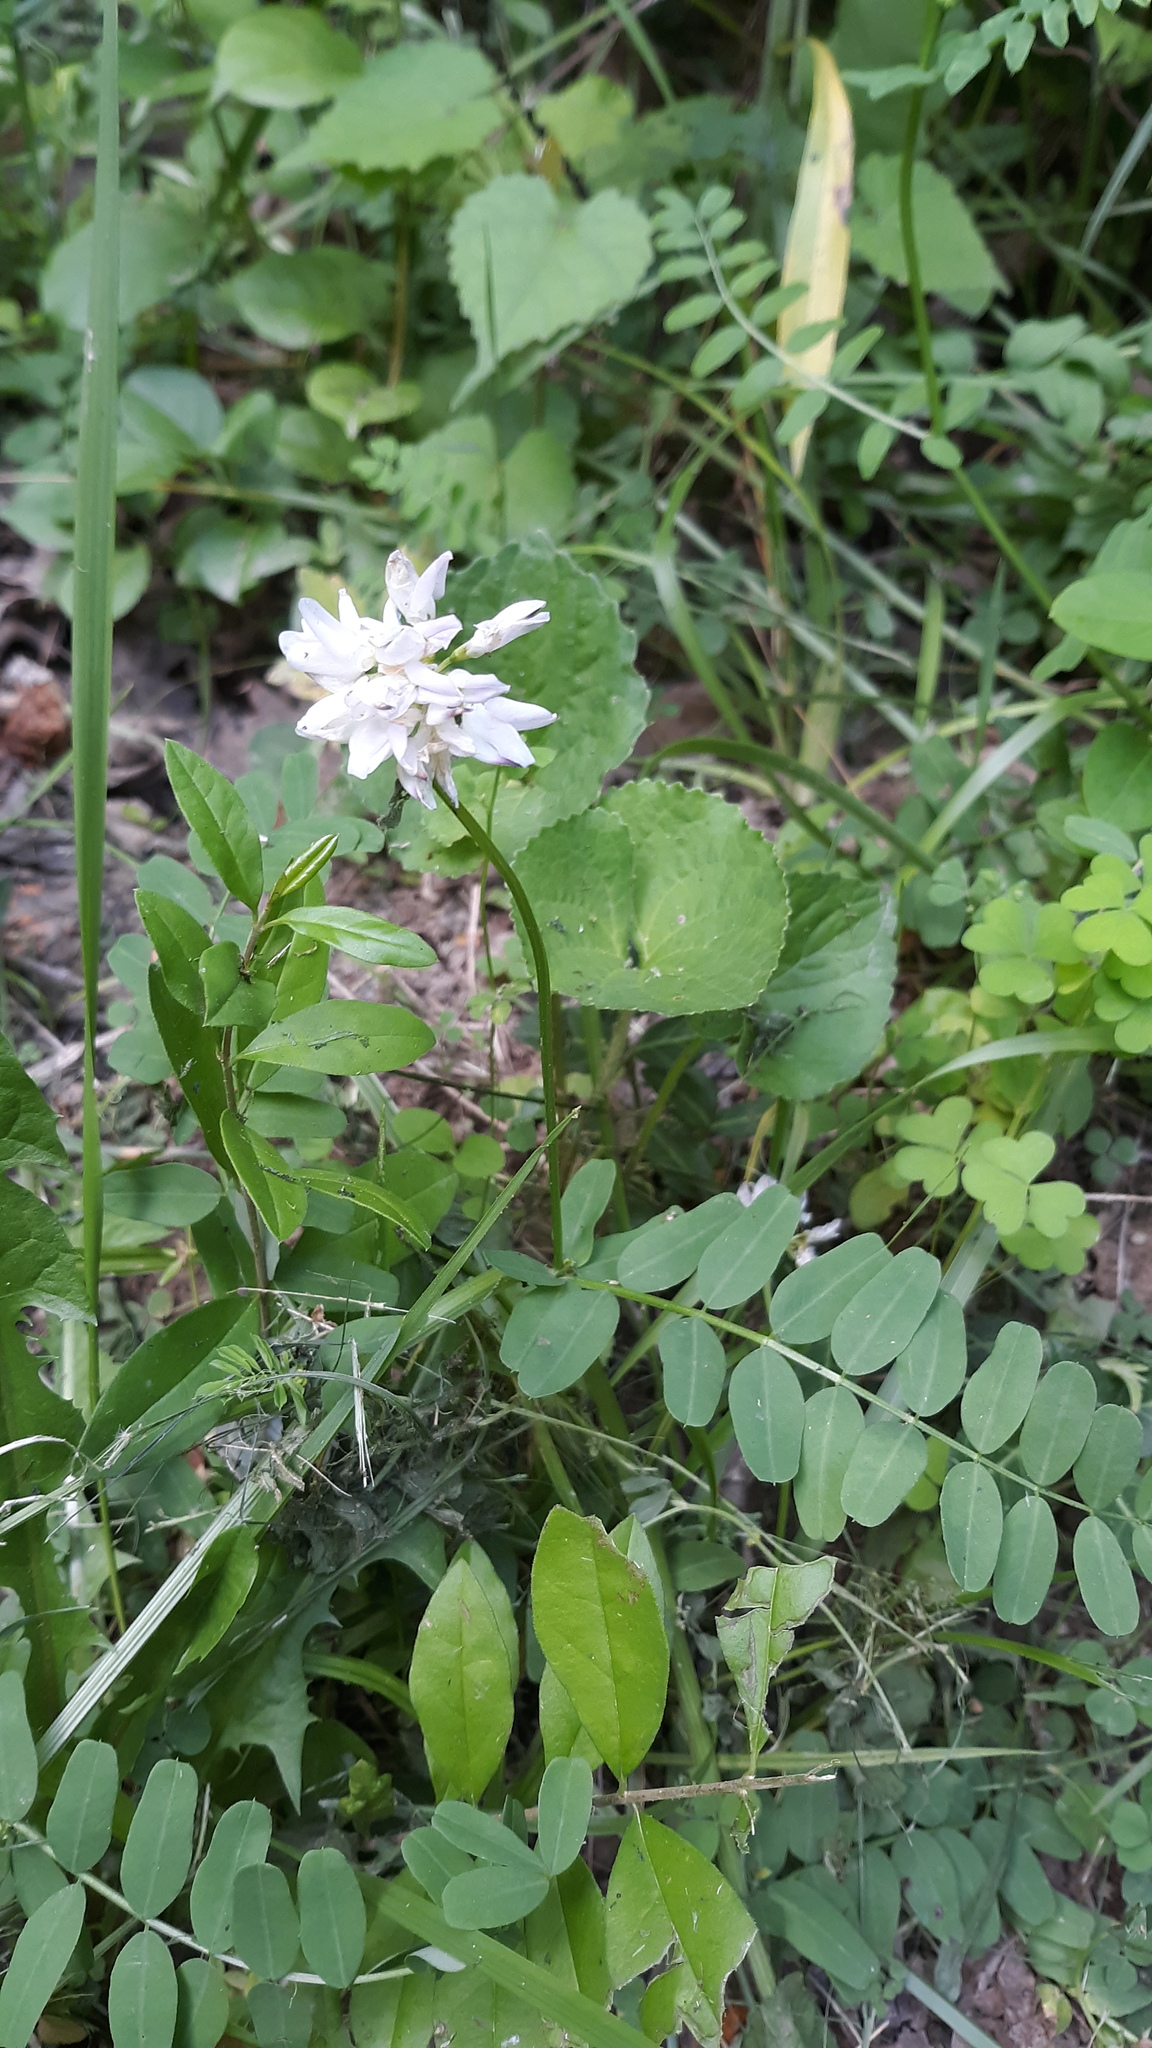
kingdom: Plantae
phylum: Tracheophyta
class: Magnoliopsida
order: Fabales
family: Fabaceae
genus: Coronilla
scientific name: Coronilla varia
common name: Crownvetch
